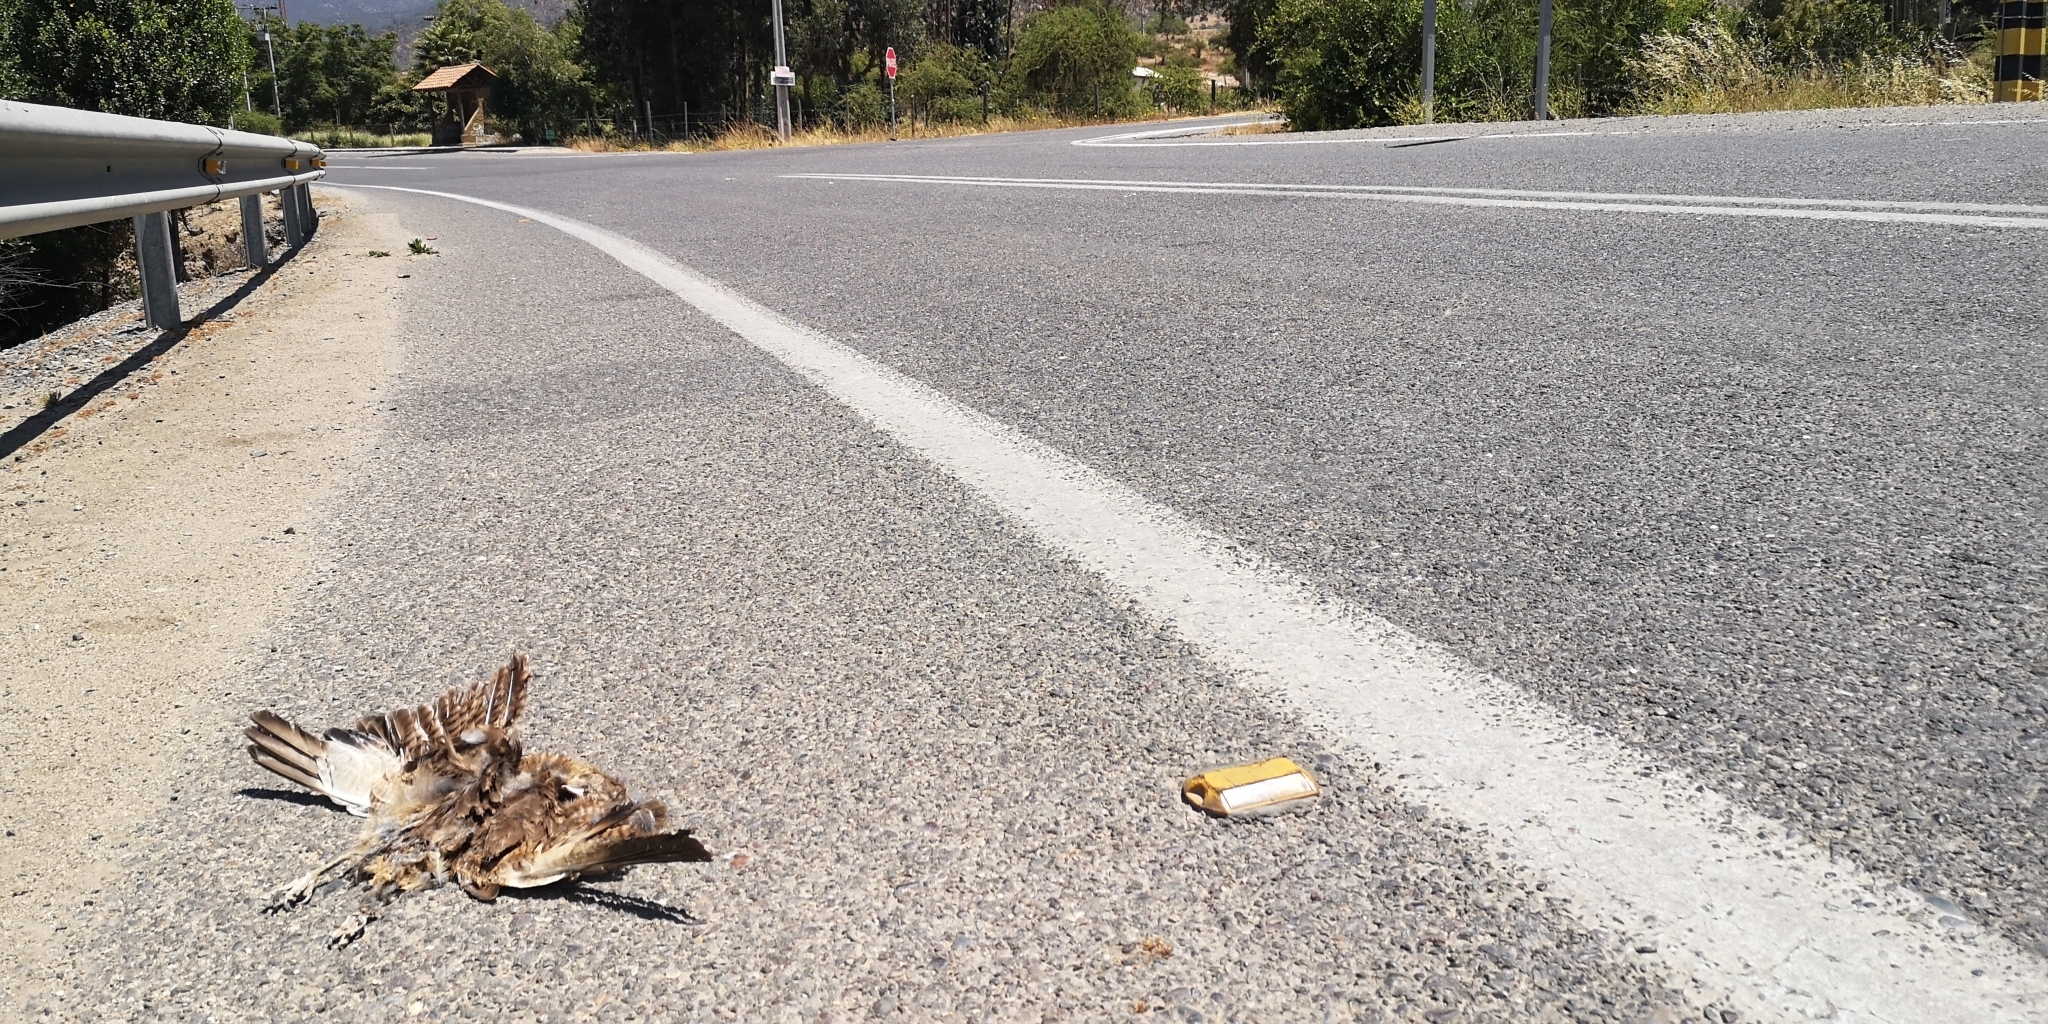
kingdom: Animalia
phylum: Chordata
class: Aves
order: Falconiformes
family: Falconidae
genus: Daptrius
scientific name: Daptrius
